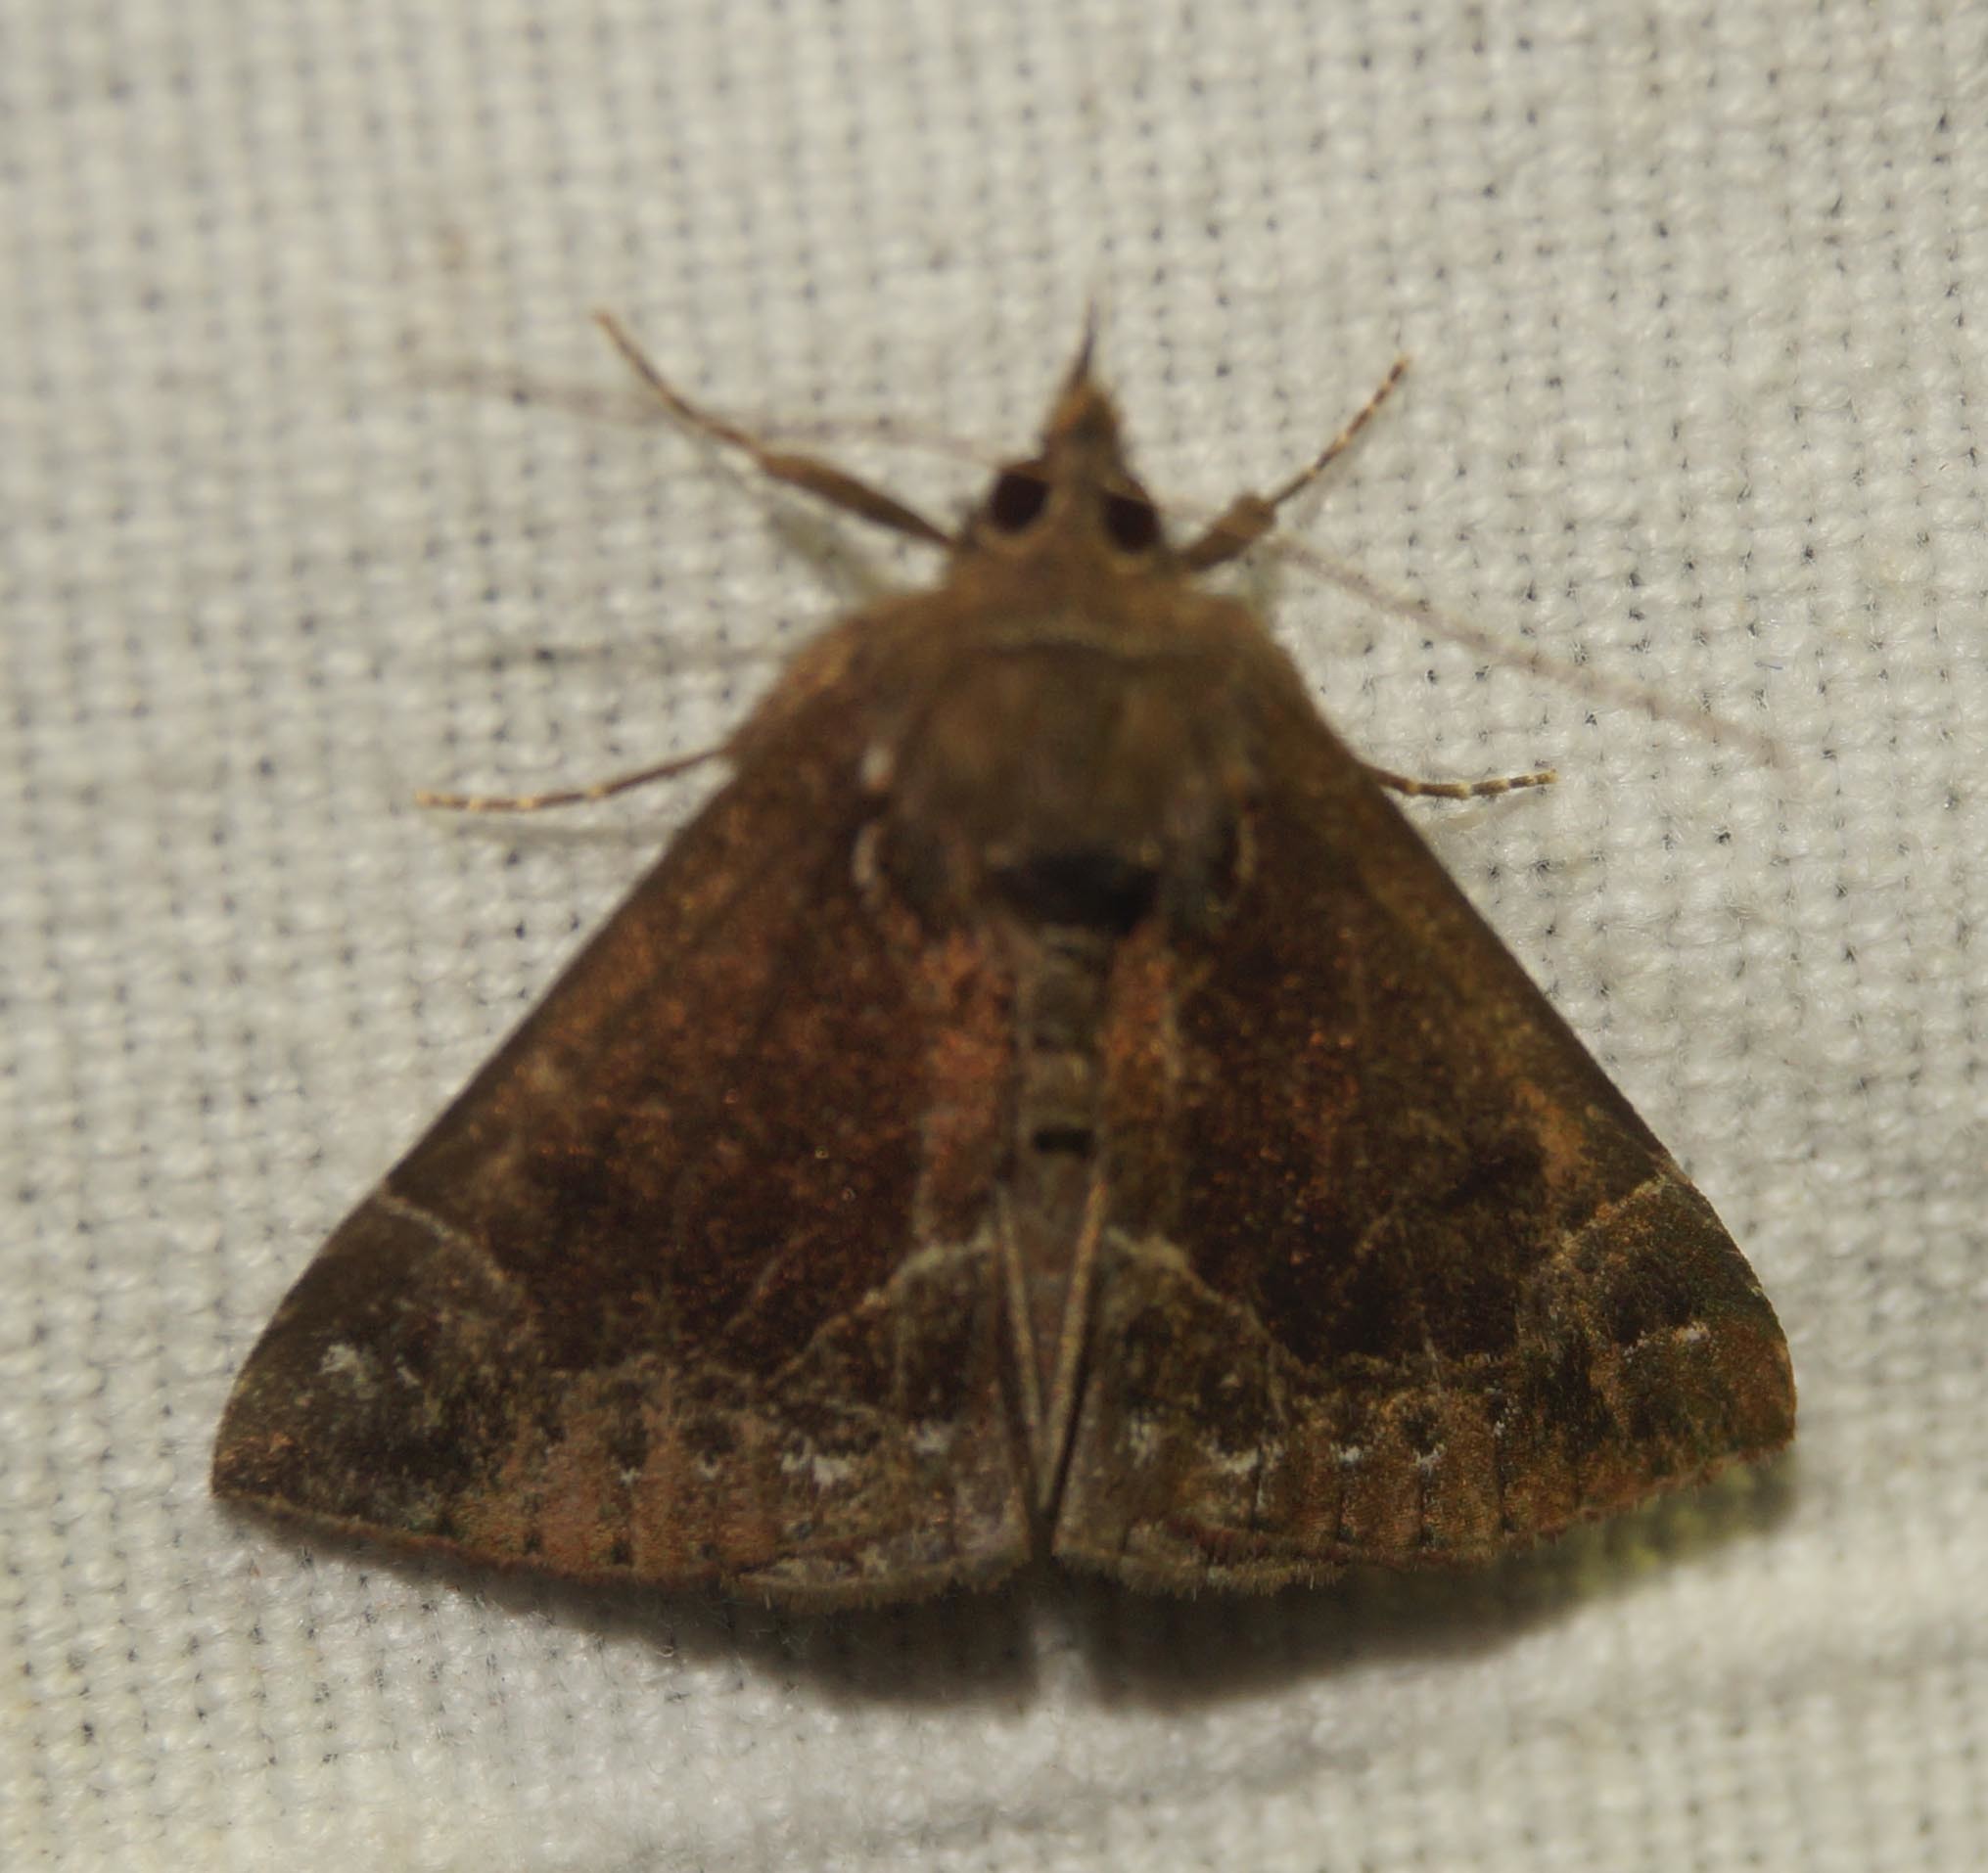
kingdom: Animalia
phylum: Arthropoda
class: Insecta
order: Lepidoptera
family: Erebidae
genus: Hypena
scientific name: Hypena crassalis
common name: Beautiful snout
